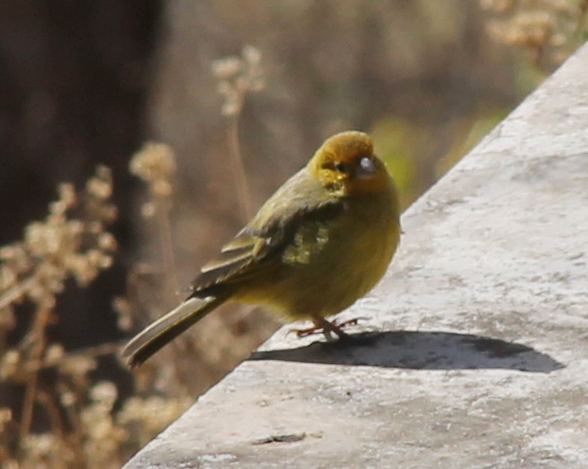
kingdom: Animalia
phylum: Chordata
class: Aves
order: Passeriformes
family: Thraupidae
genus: Sicalis
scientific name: Sicalis flaveola
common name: Saffron finch
